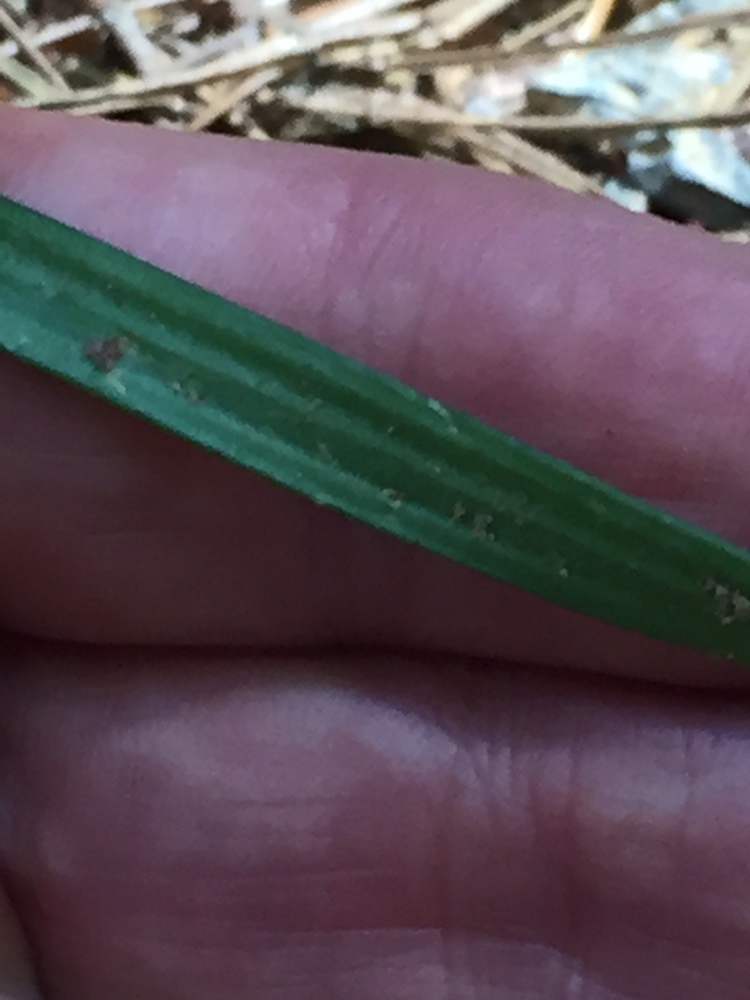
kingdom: Plantae
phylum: Tracheophyta
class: Liliopsida
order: Asparagales
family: Orchidaceae
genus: Caladenia
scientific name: Caladenia lyallii
